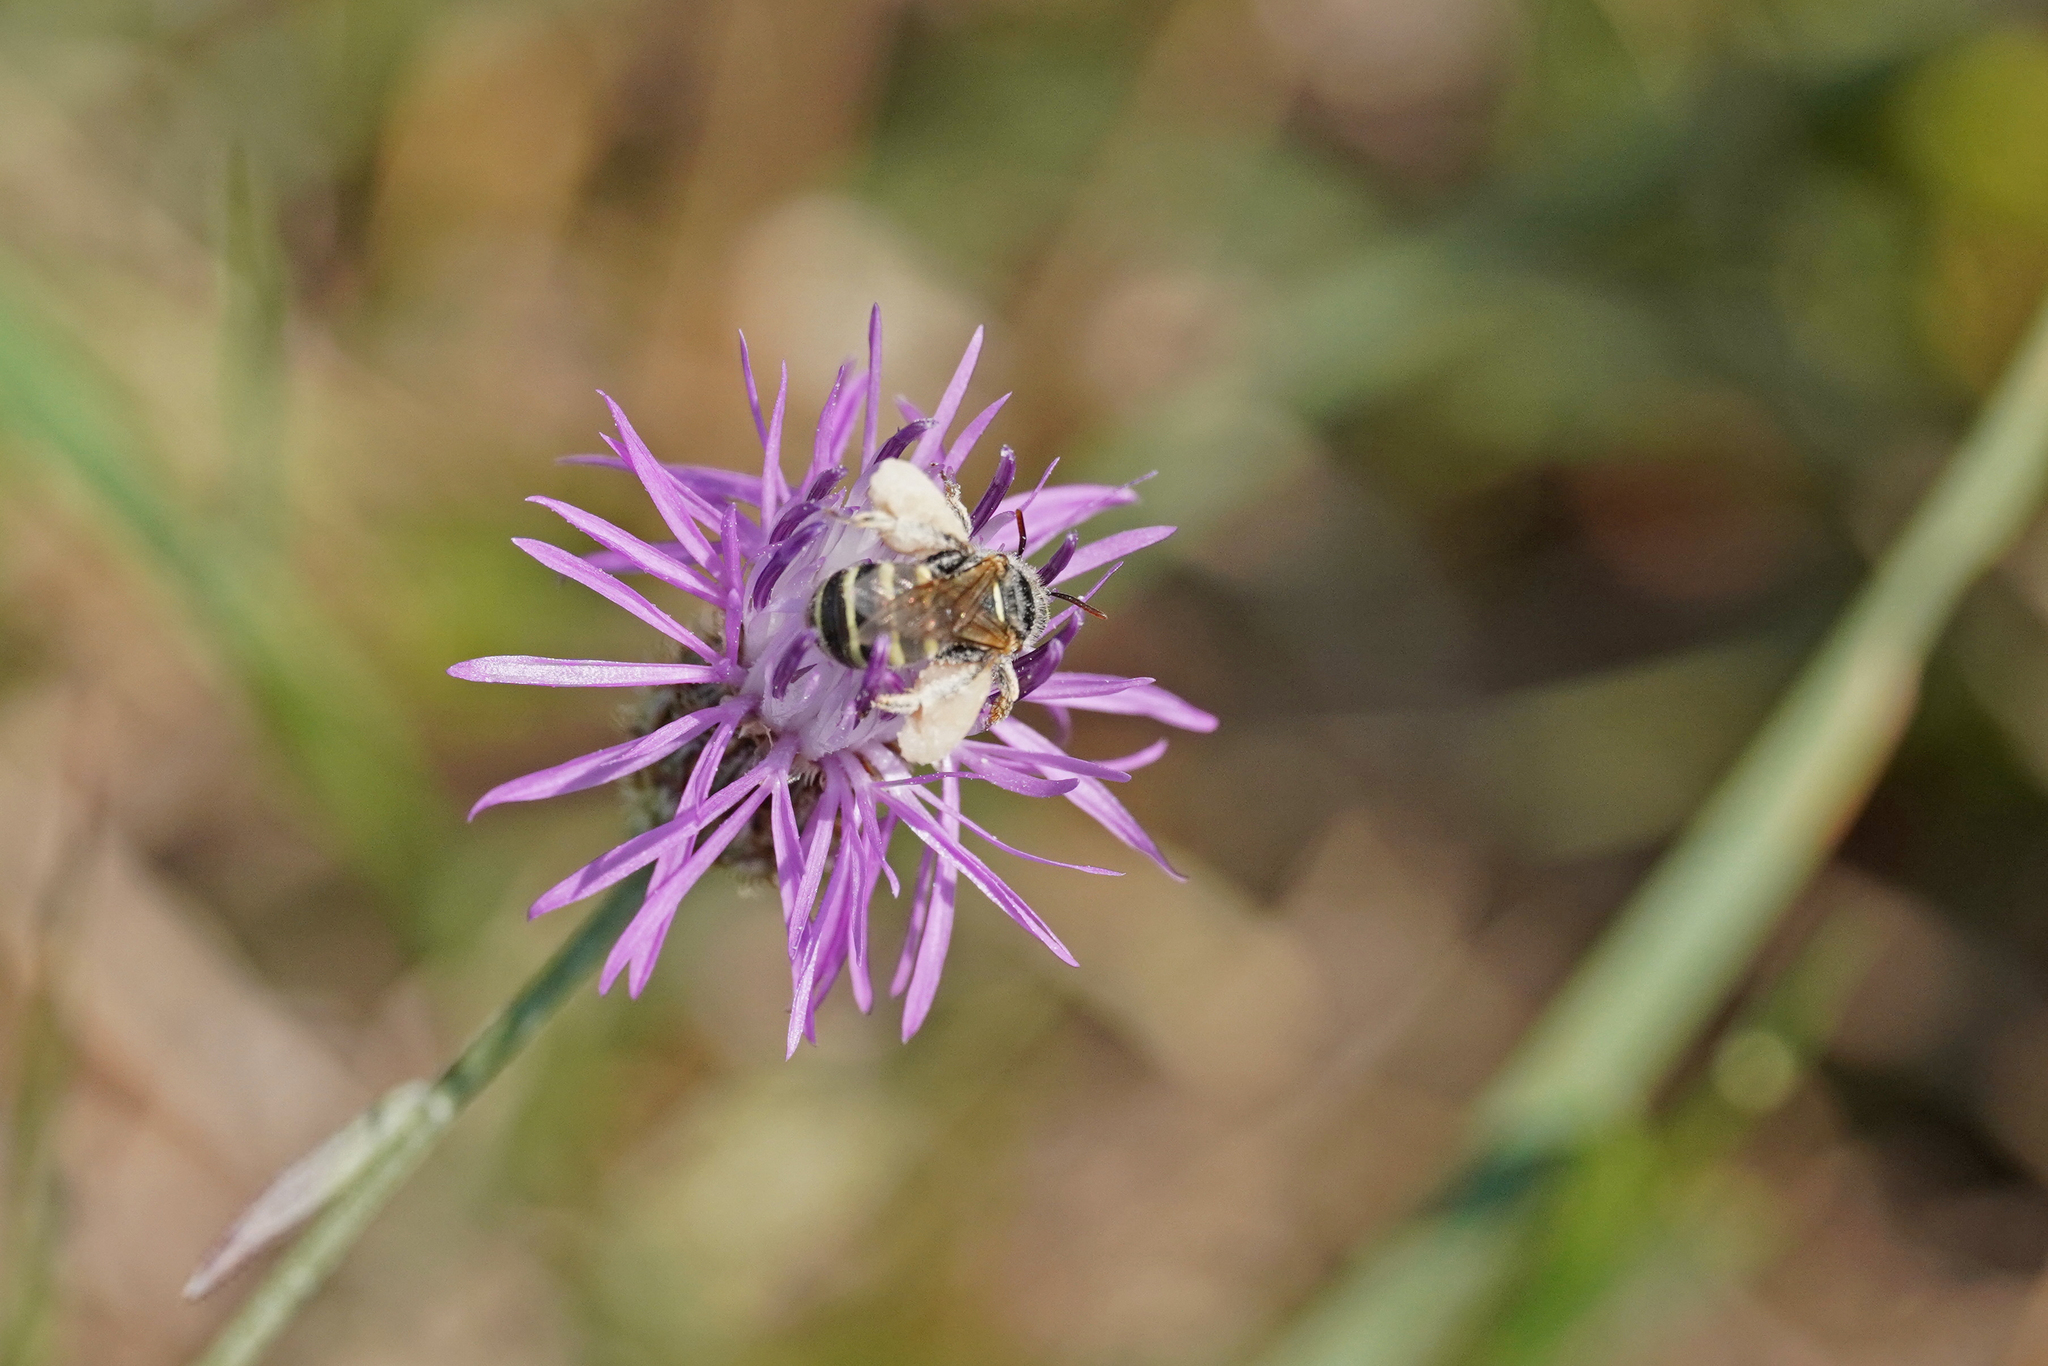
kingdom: Animalia
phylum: Arthropoda
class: Insecta
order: Hymenoptera
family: Andrenidae
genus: Camptopoeum
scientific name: Camptopoeum friesei
